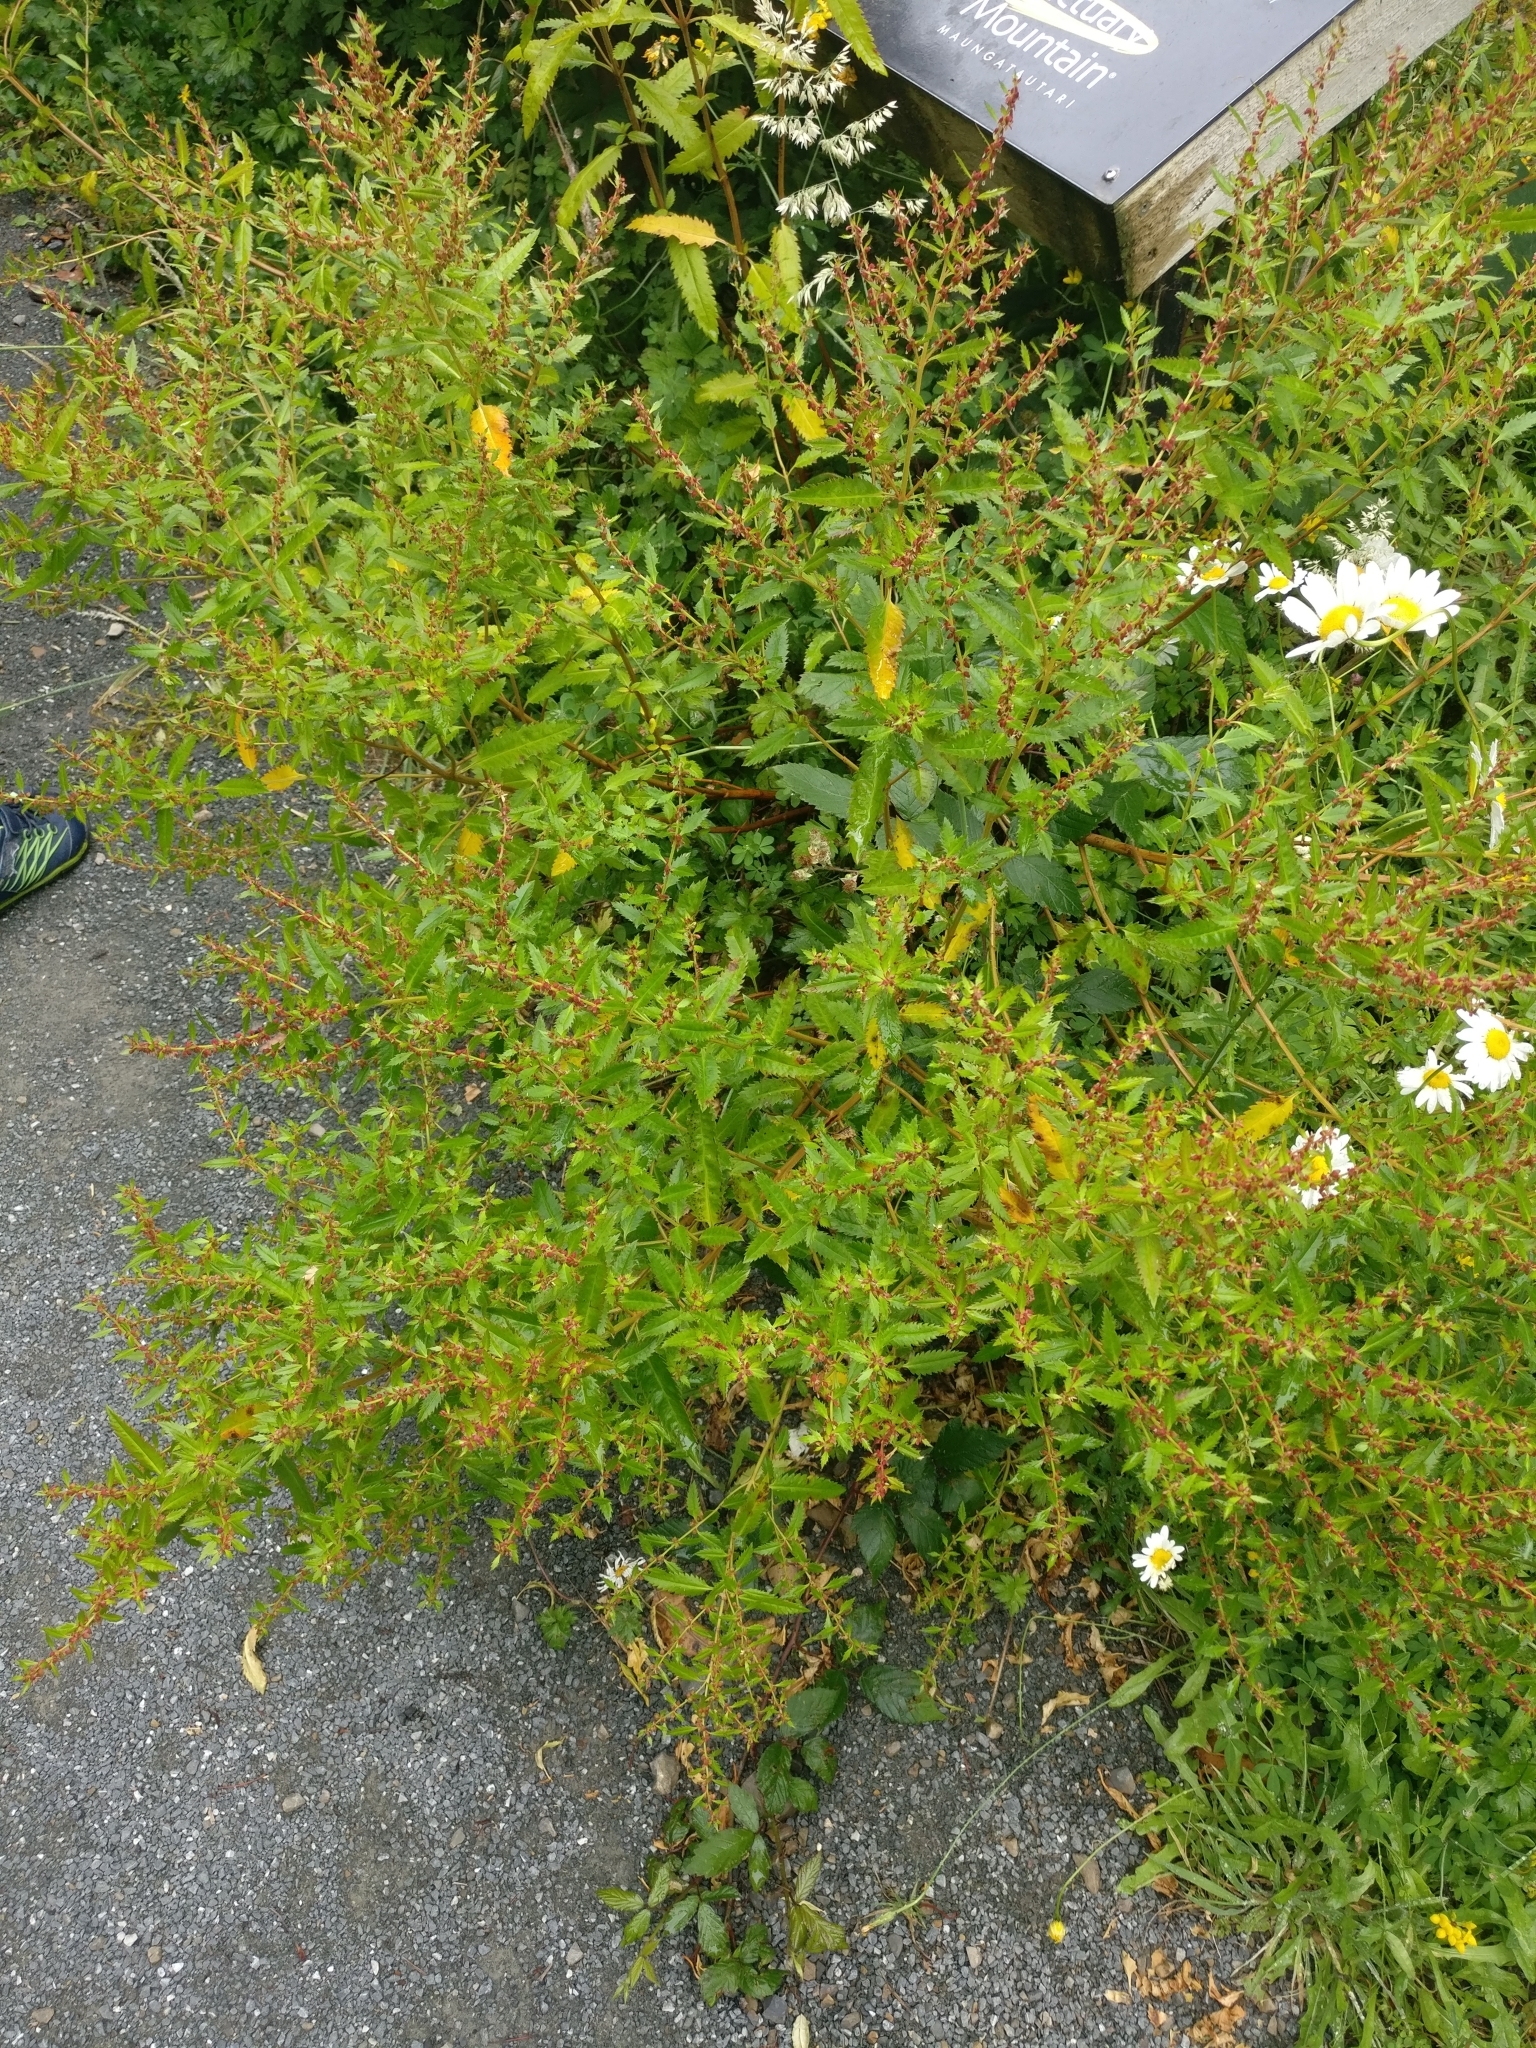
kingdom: Plantae
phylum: Tracheophyta
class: Magnoliopsida
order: Saxifragales
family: Haloragaceae
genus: Haloragis
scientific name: Haloragis erecta
